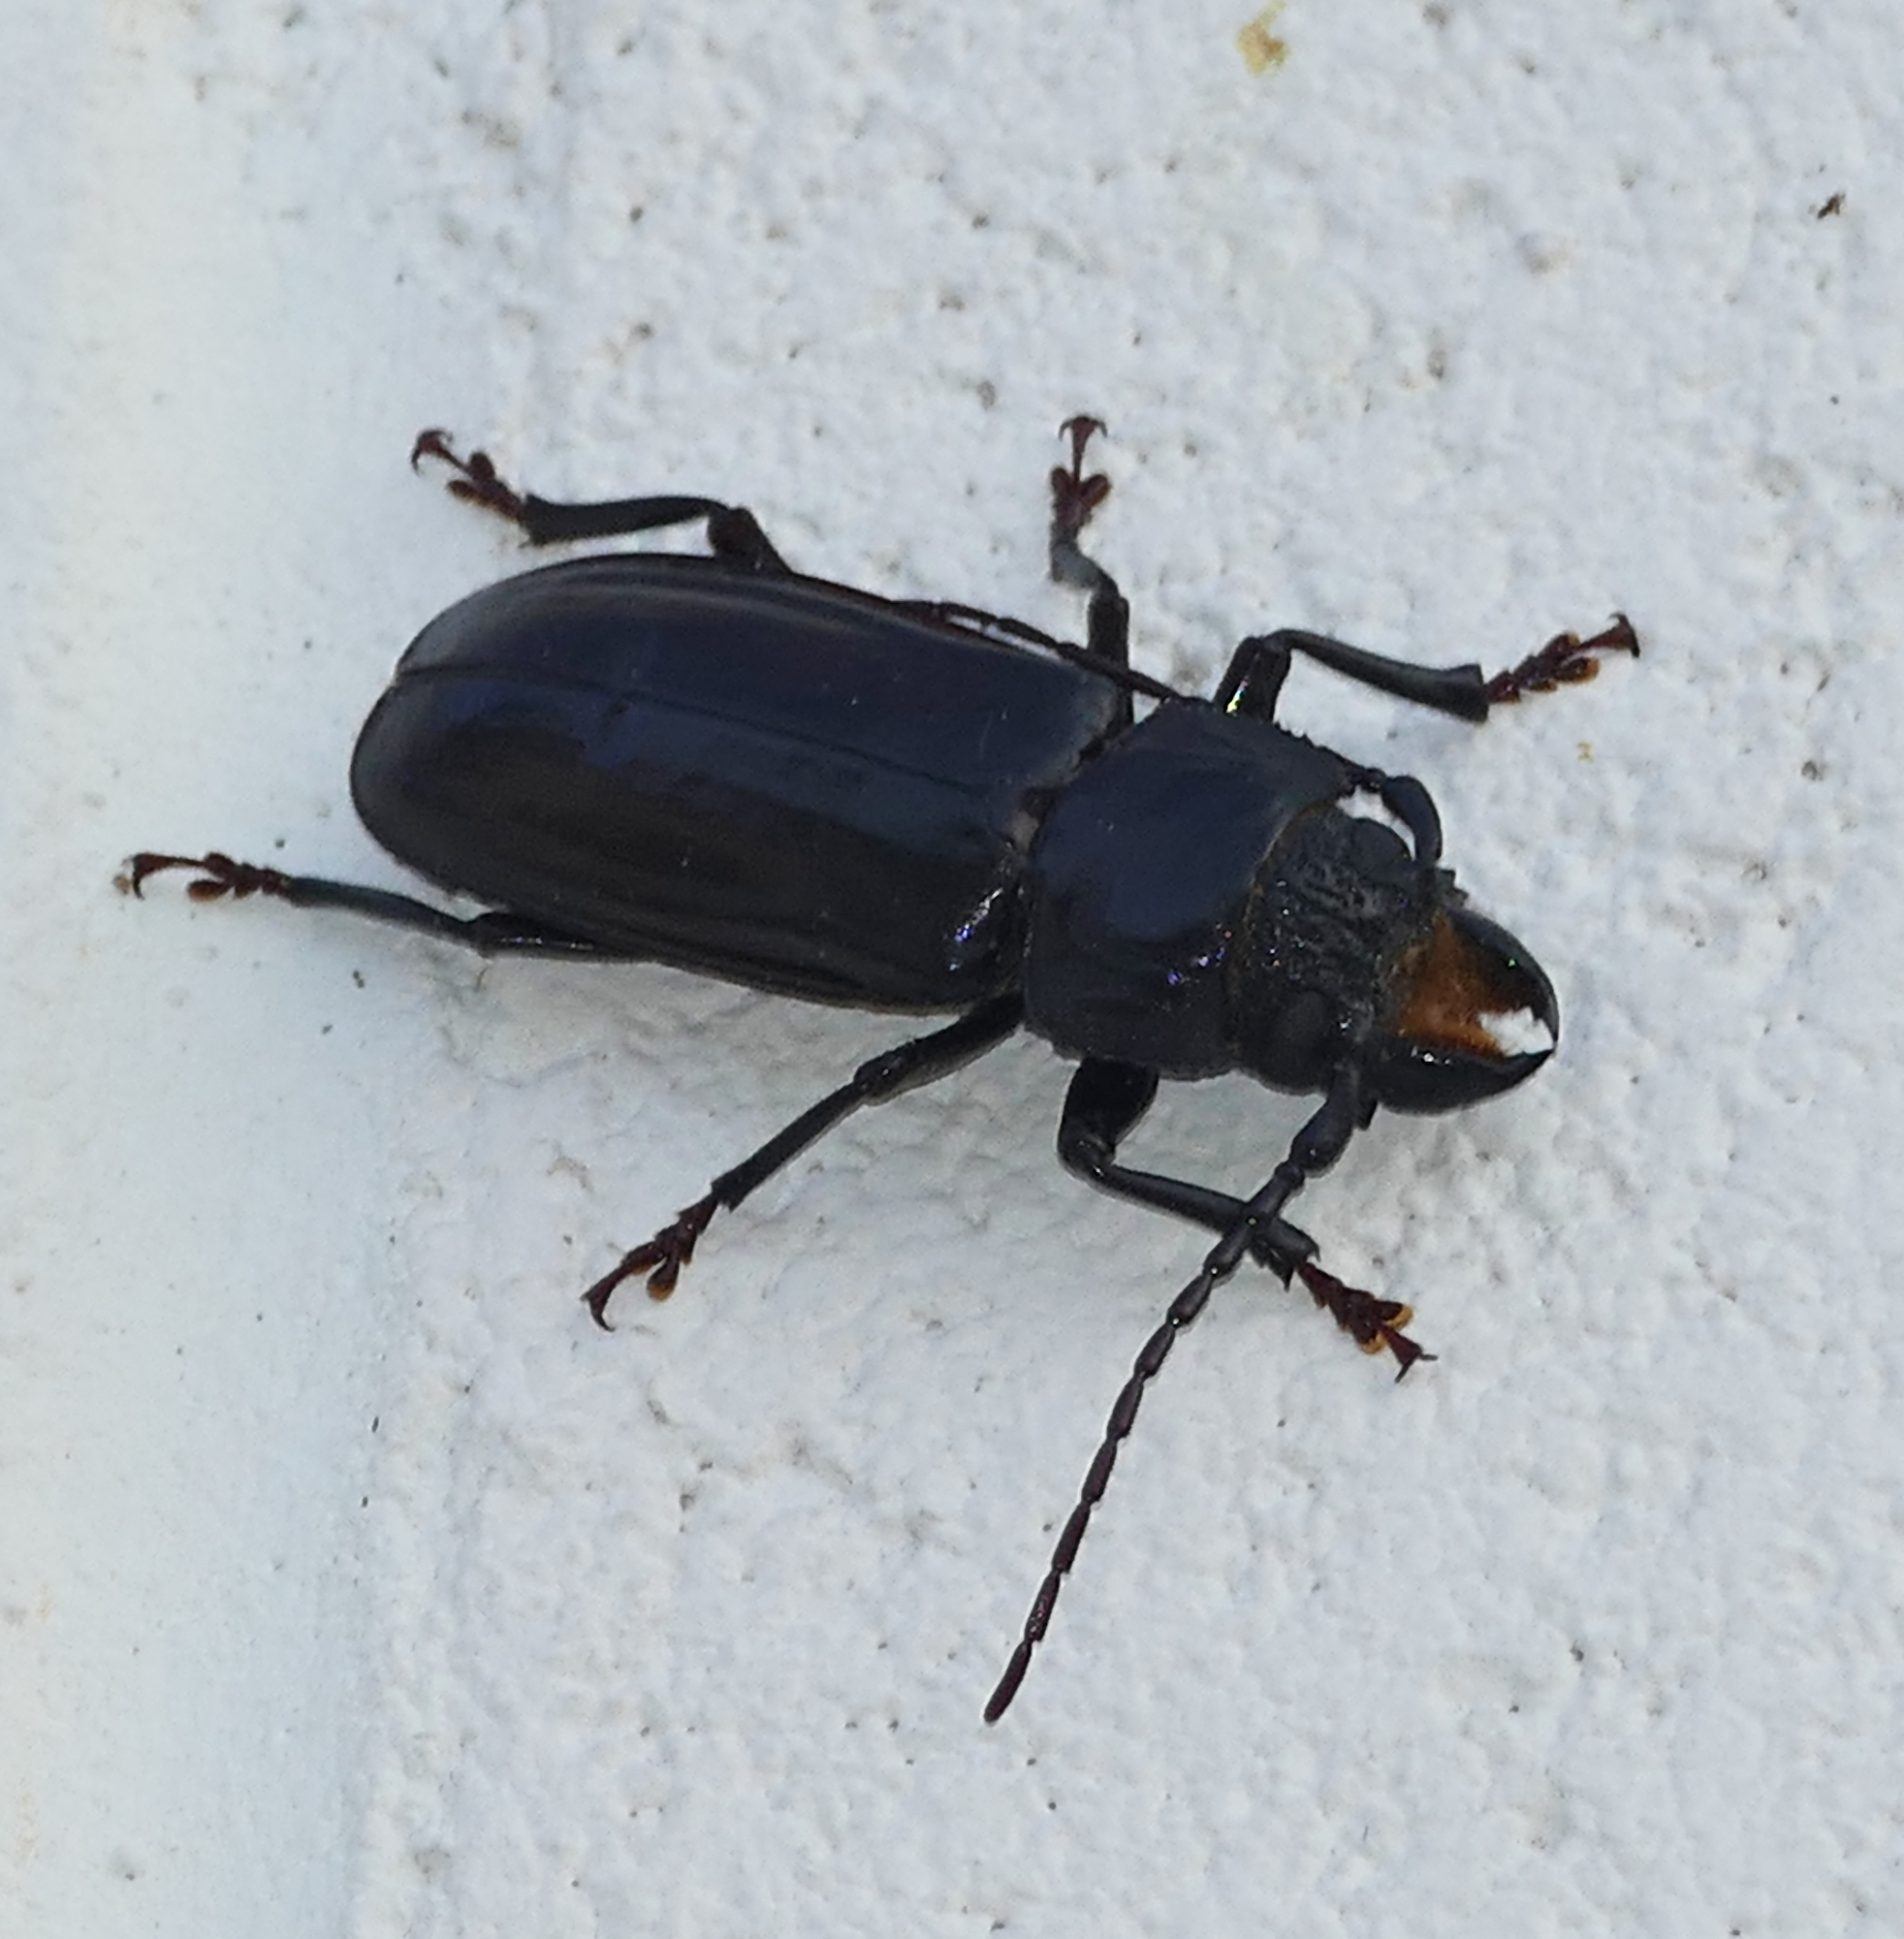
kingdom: Animalia
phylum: Arthropoda
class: Insecta
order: Coleoptera
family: Cerambycidae
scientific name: Cerambycidae
